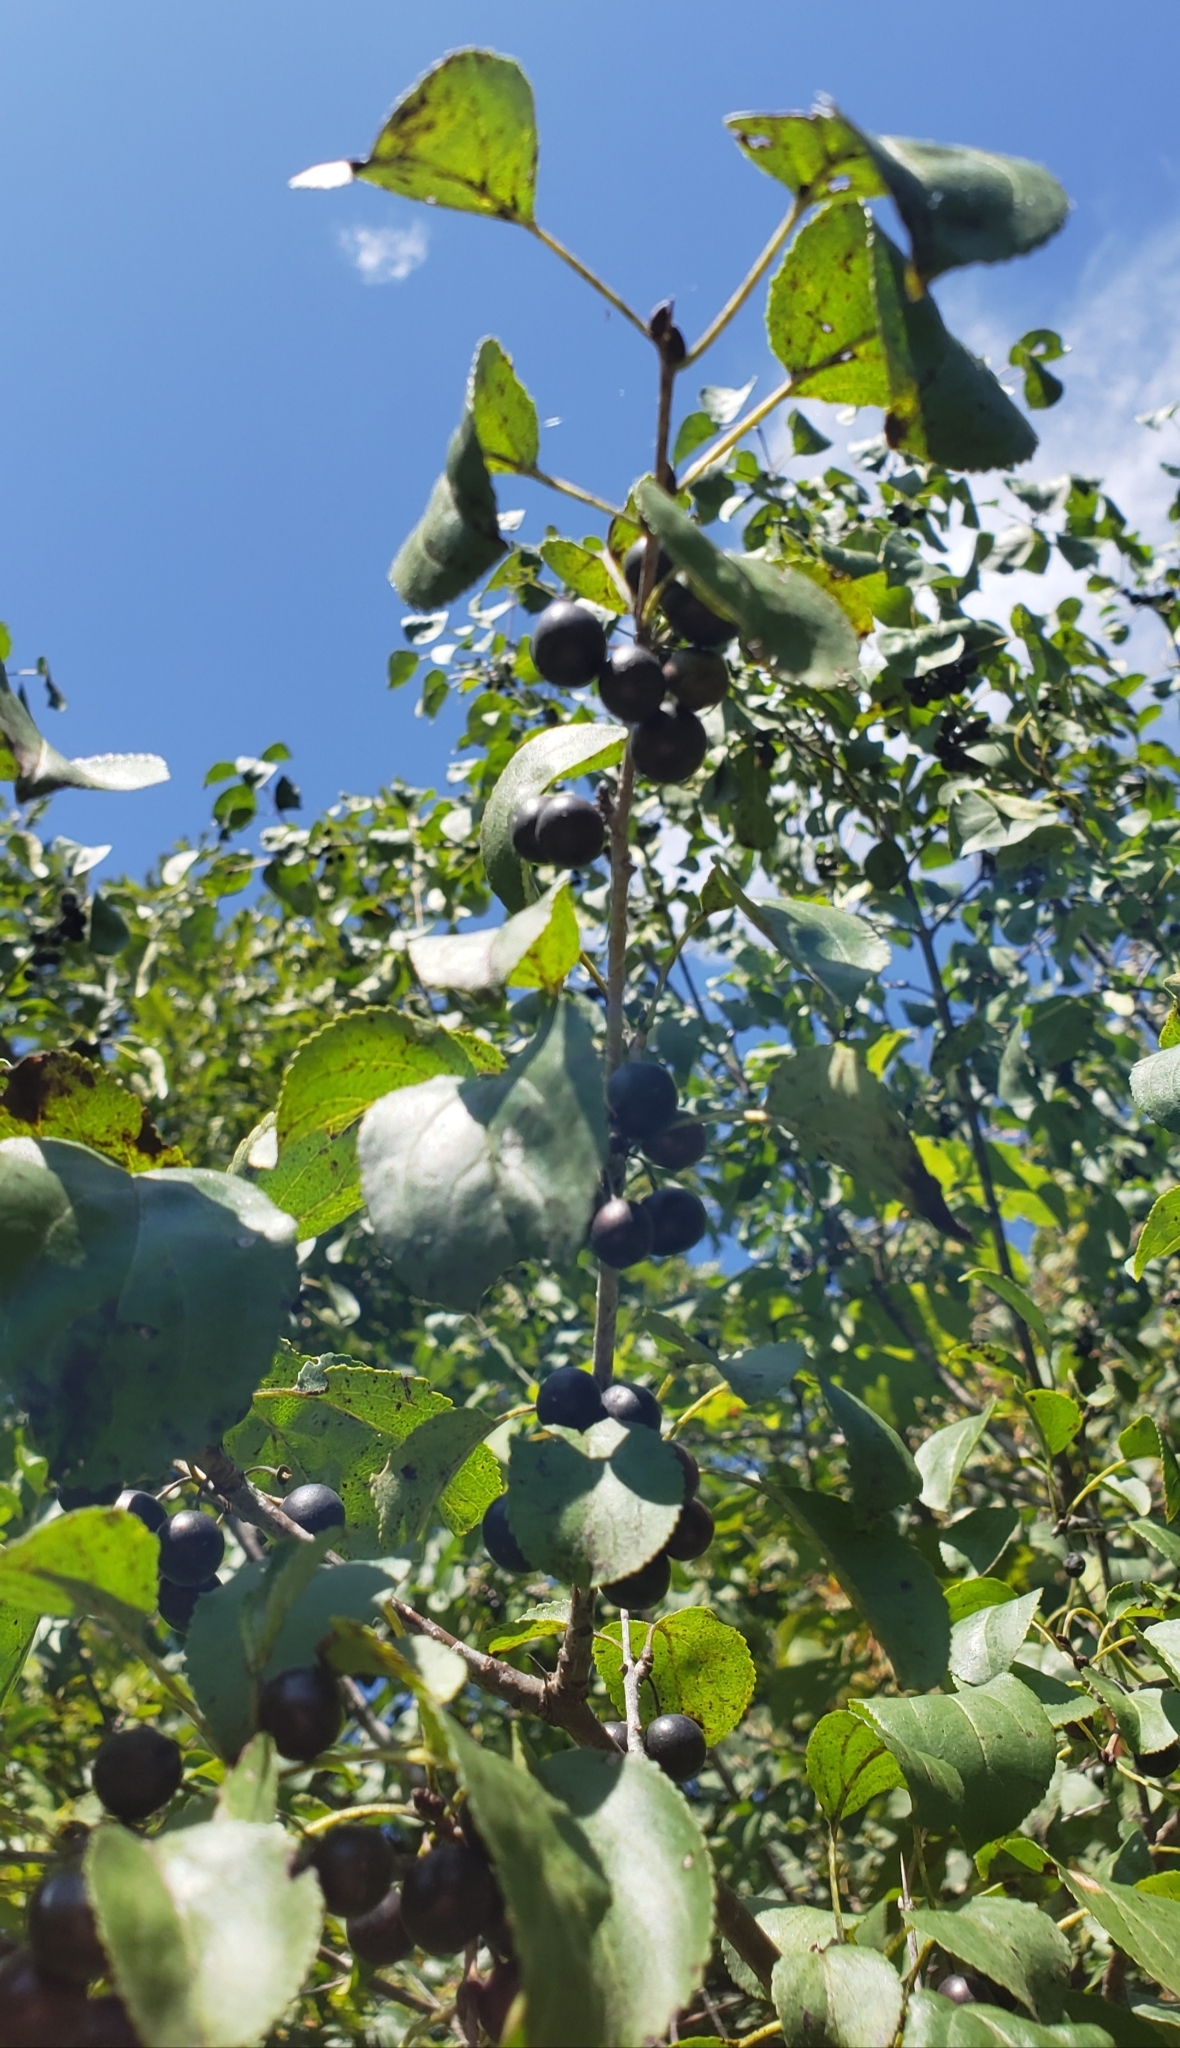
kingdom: Plantae
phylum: Tracheophyta
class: Magnoliopsida
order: Rosales
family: Rhamnaceae
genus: Rhamnus
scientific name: Rhamnus cathartica
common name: Common buckthorn
